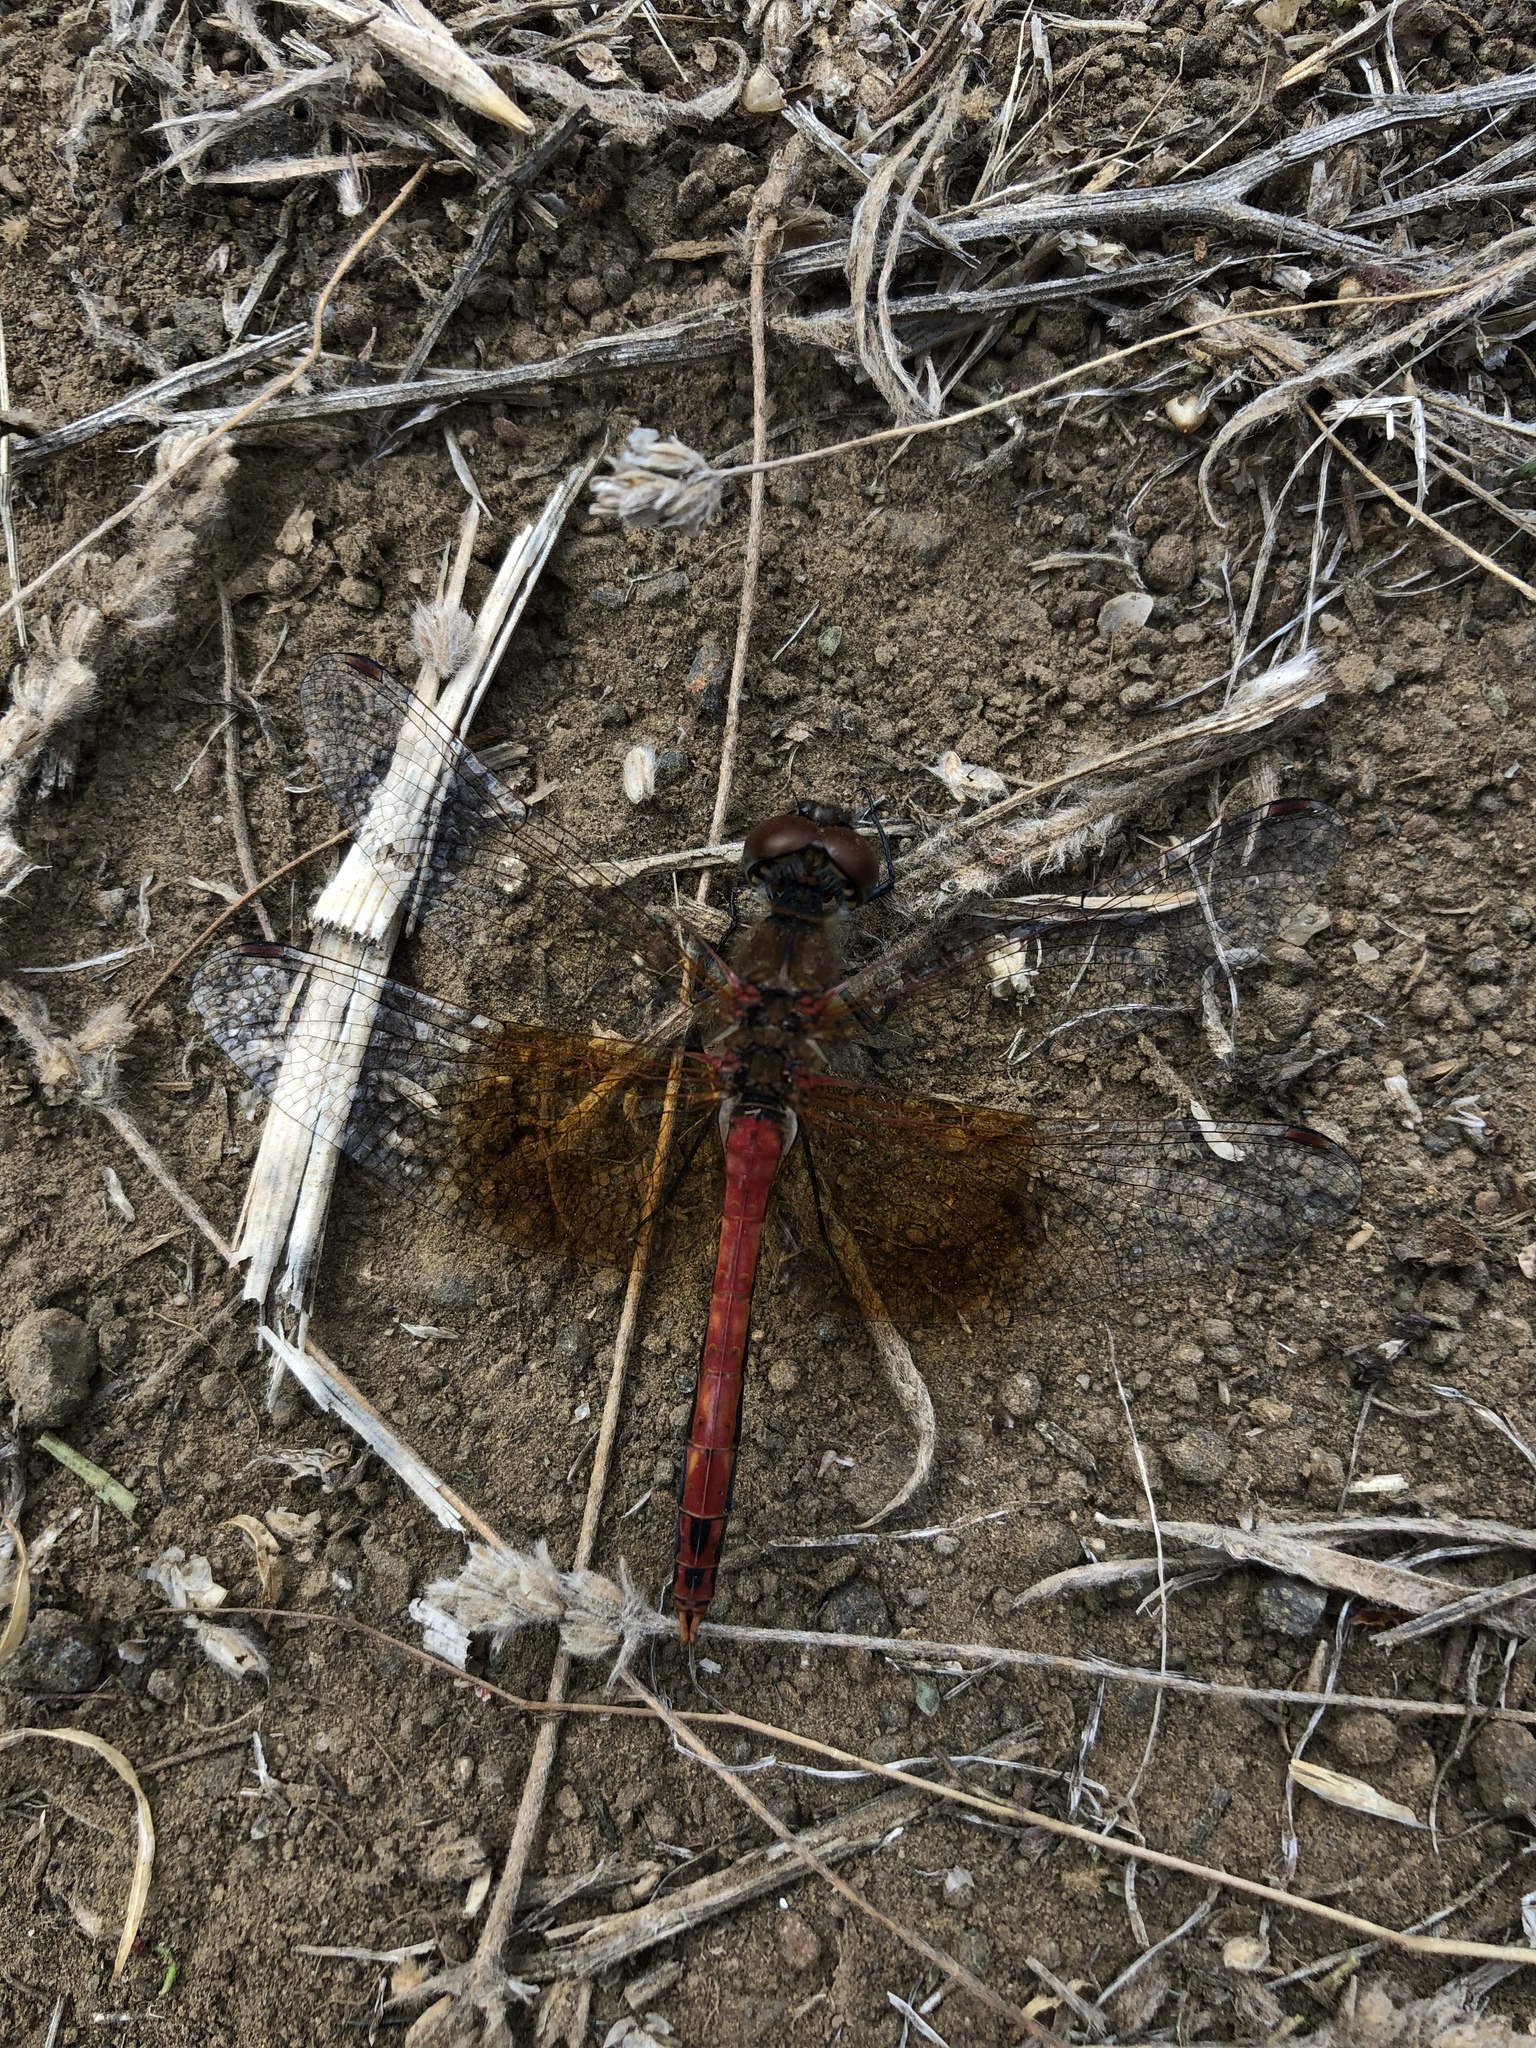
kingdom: Animalia
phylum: Arthropoda
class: Insecta
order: Odonata
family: Libellulidae
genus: Sympetrum
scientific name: Sympetrum semicinctum
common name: Band-winged meadowhawk
